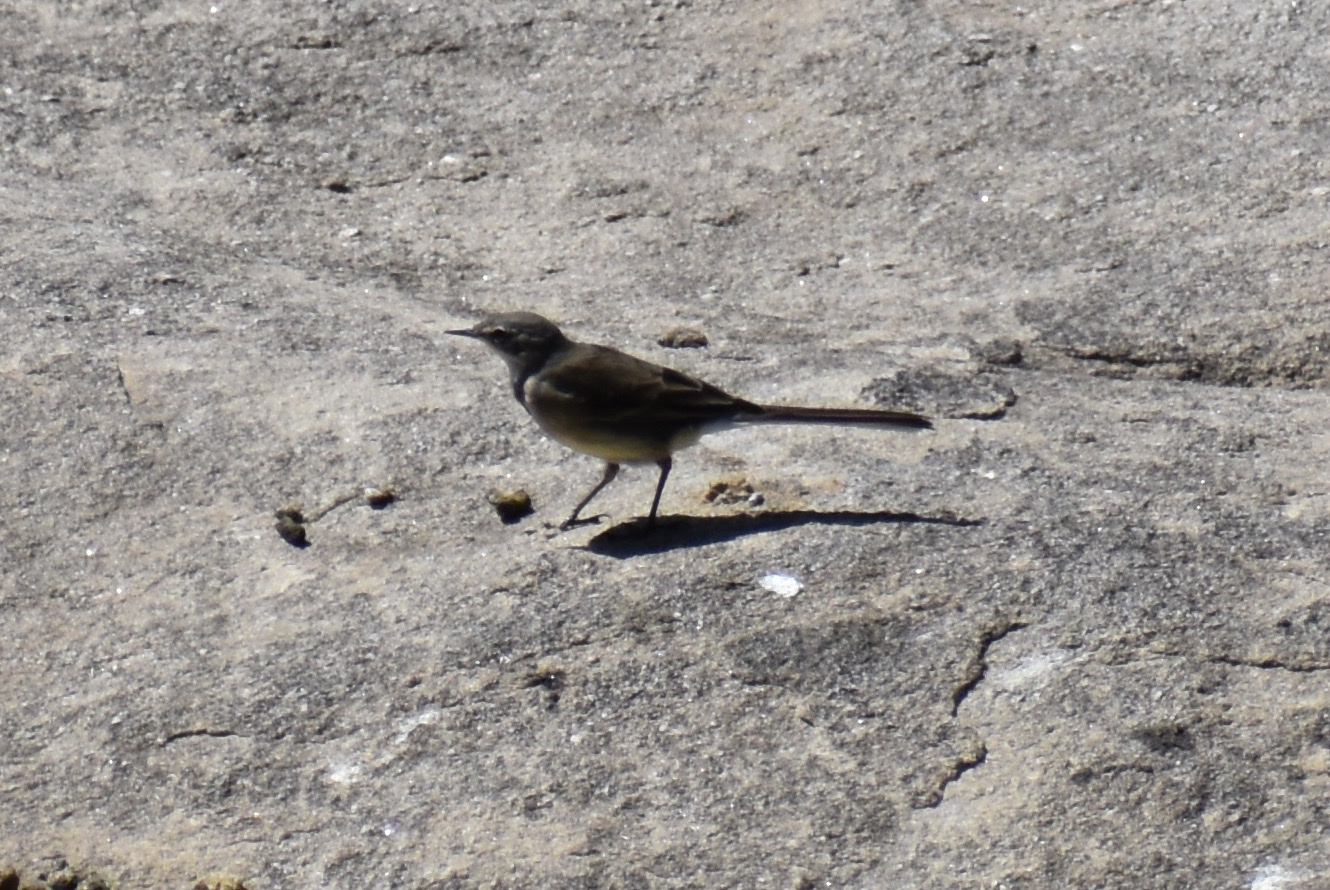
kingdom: Animalia
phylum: Chordata
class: Aves
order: Passeriformes
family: Motacillidae
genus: Motacilla
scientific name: Motacilla capensis
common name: Cape wagtail
